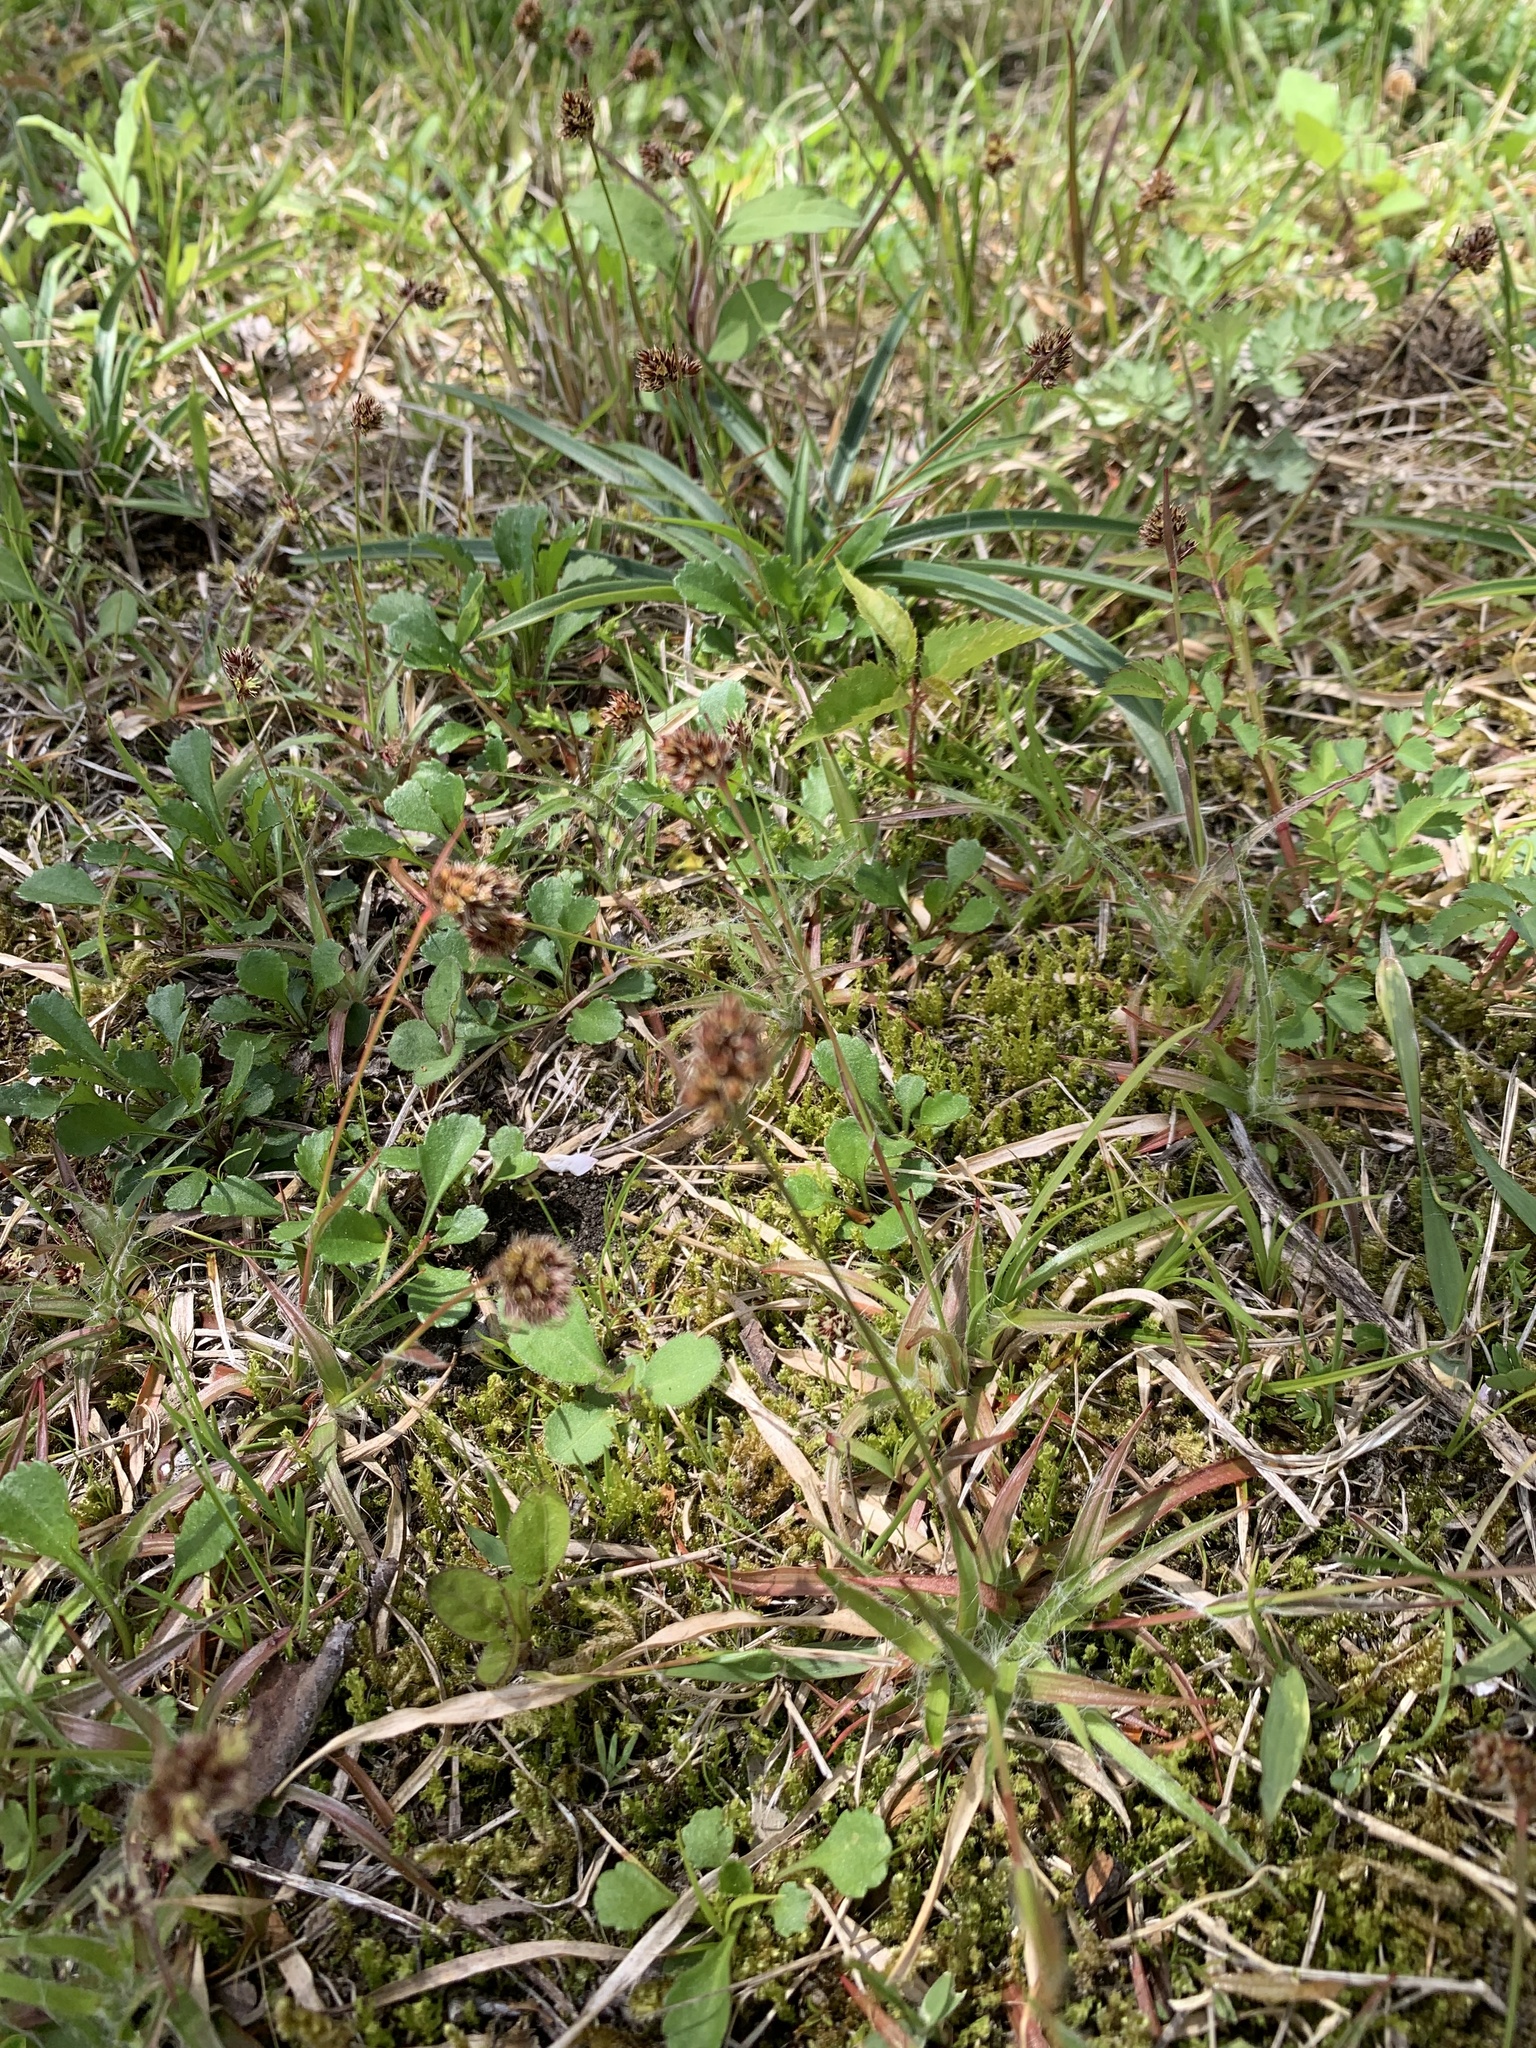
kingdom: Plantae
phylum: Tracheophyta
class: Liliopsida
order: Poales
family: Juncaceae
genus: Luzula
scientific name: Luzula capitata
